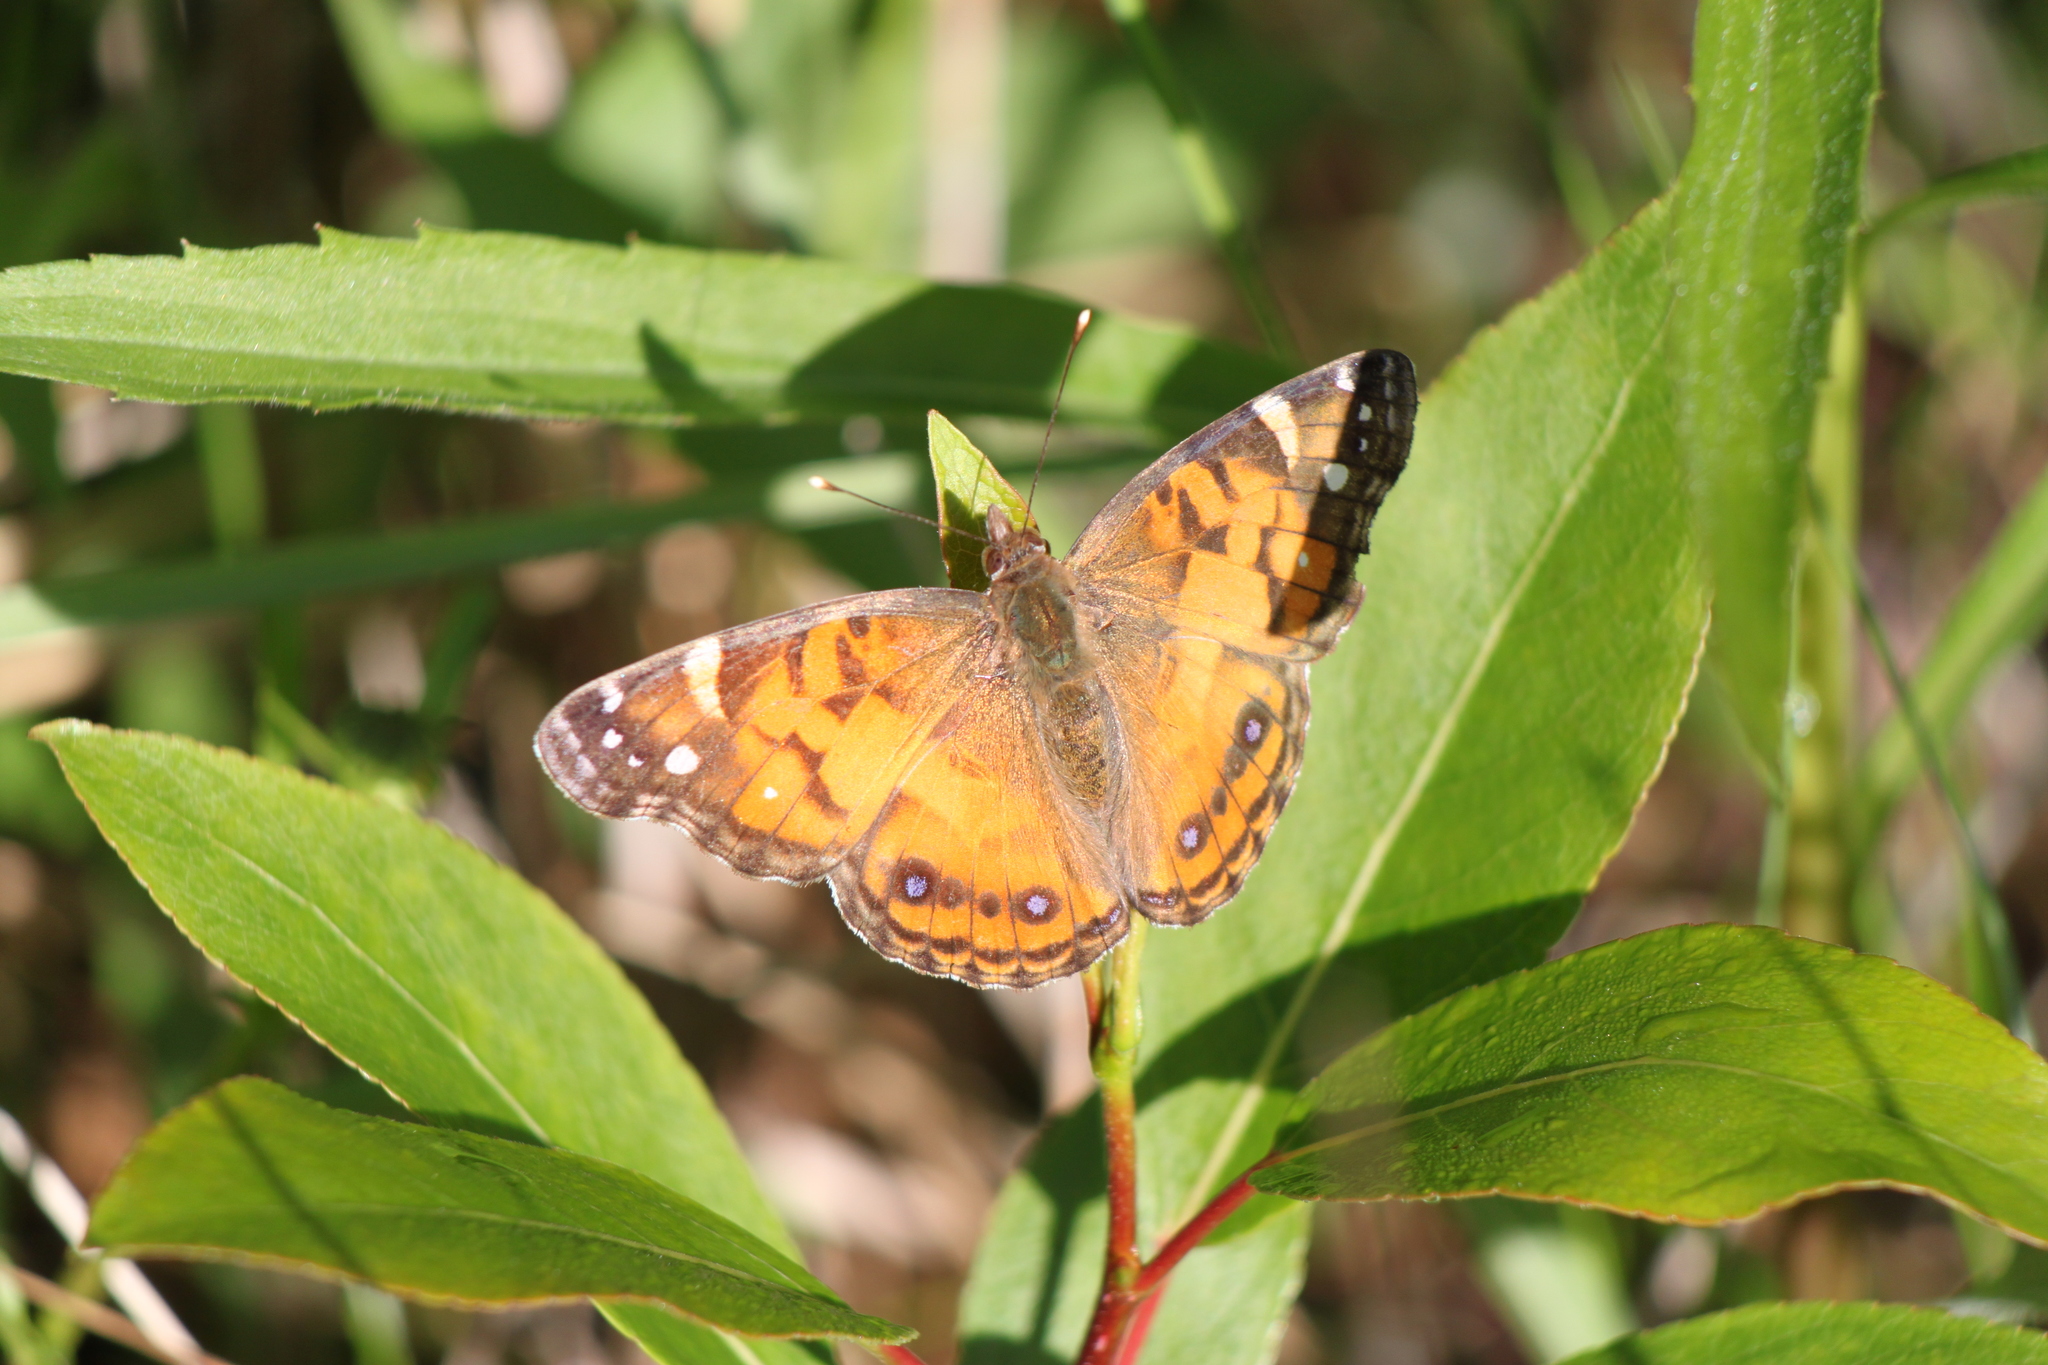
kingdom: Animalia
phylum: Arthropoda
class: Insecta
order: Lepidoptera
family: Nymphalidae
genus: Vanessa
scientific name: Vanessa virginiensis
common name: American lady
